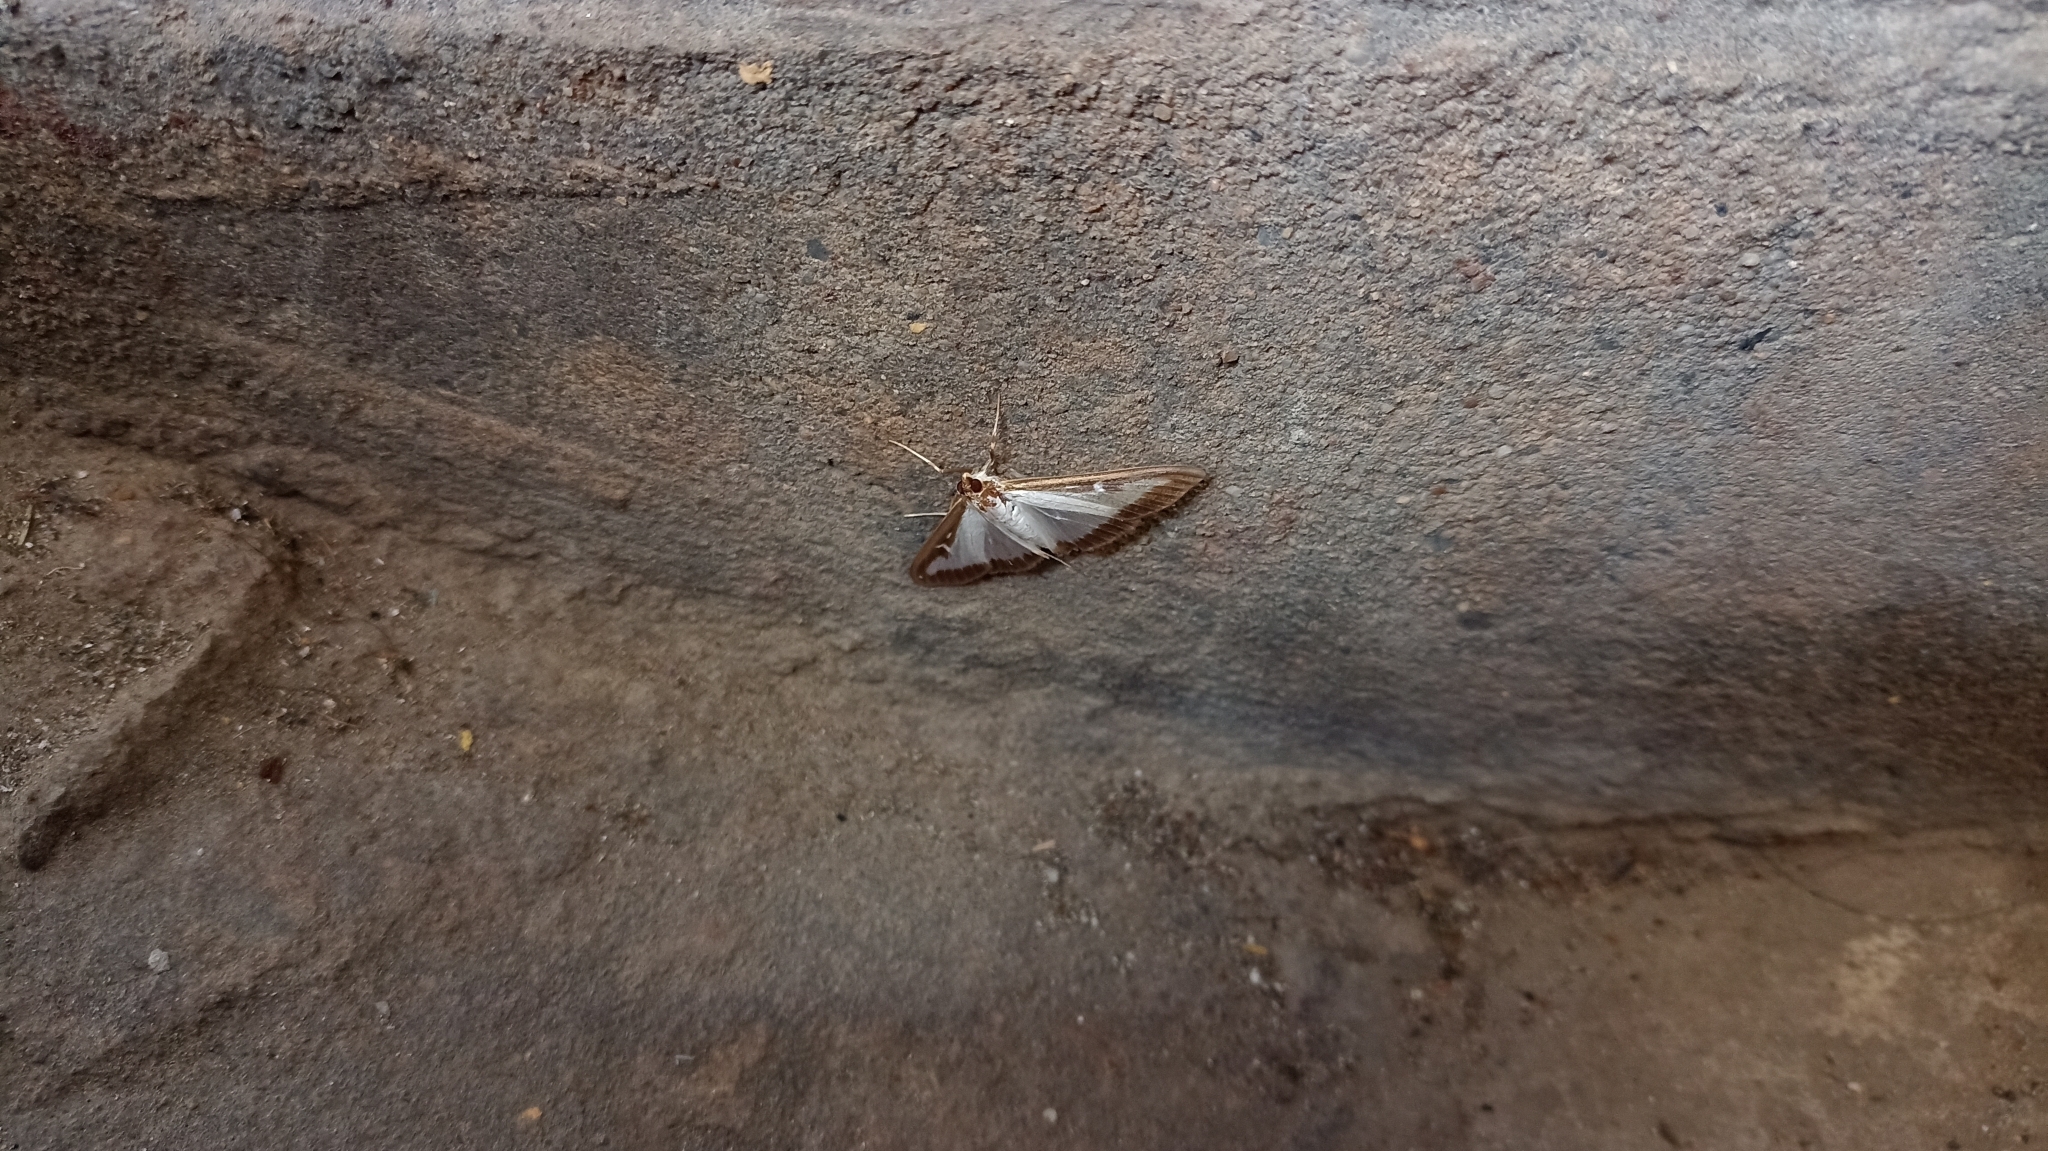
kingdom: Animalia
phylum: Arthropoda
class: Insecta
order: Lepidoptera
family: Crambidae
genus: Cydalima
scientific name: Cydalima perspectalis
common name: Box tree moth
